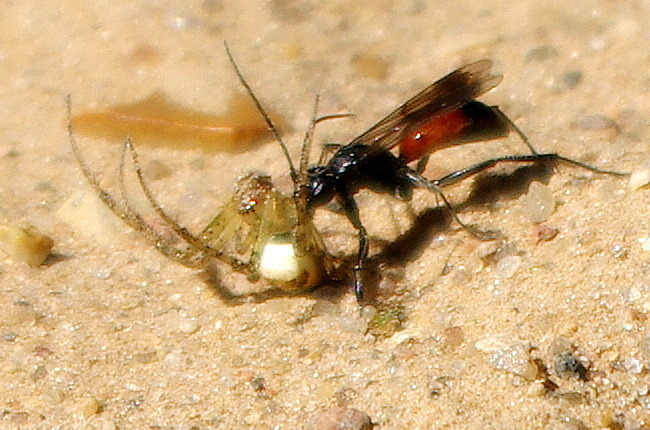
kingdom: Animalia
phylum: Arthropoda
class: Insecta
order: Hymenoptera
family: Pompilidae
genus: Caliadurgus
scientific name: Caliadurgus fasciatellus
